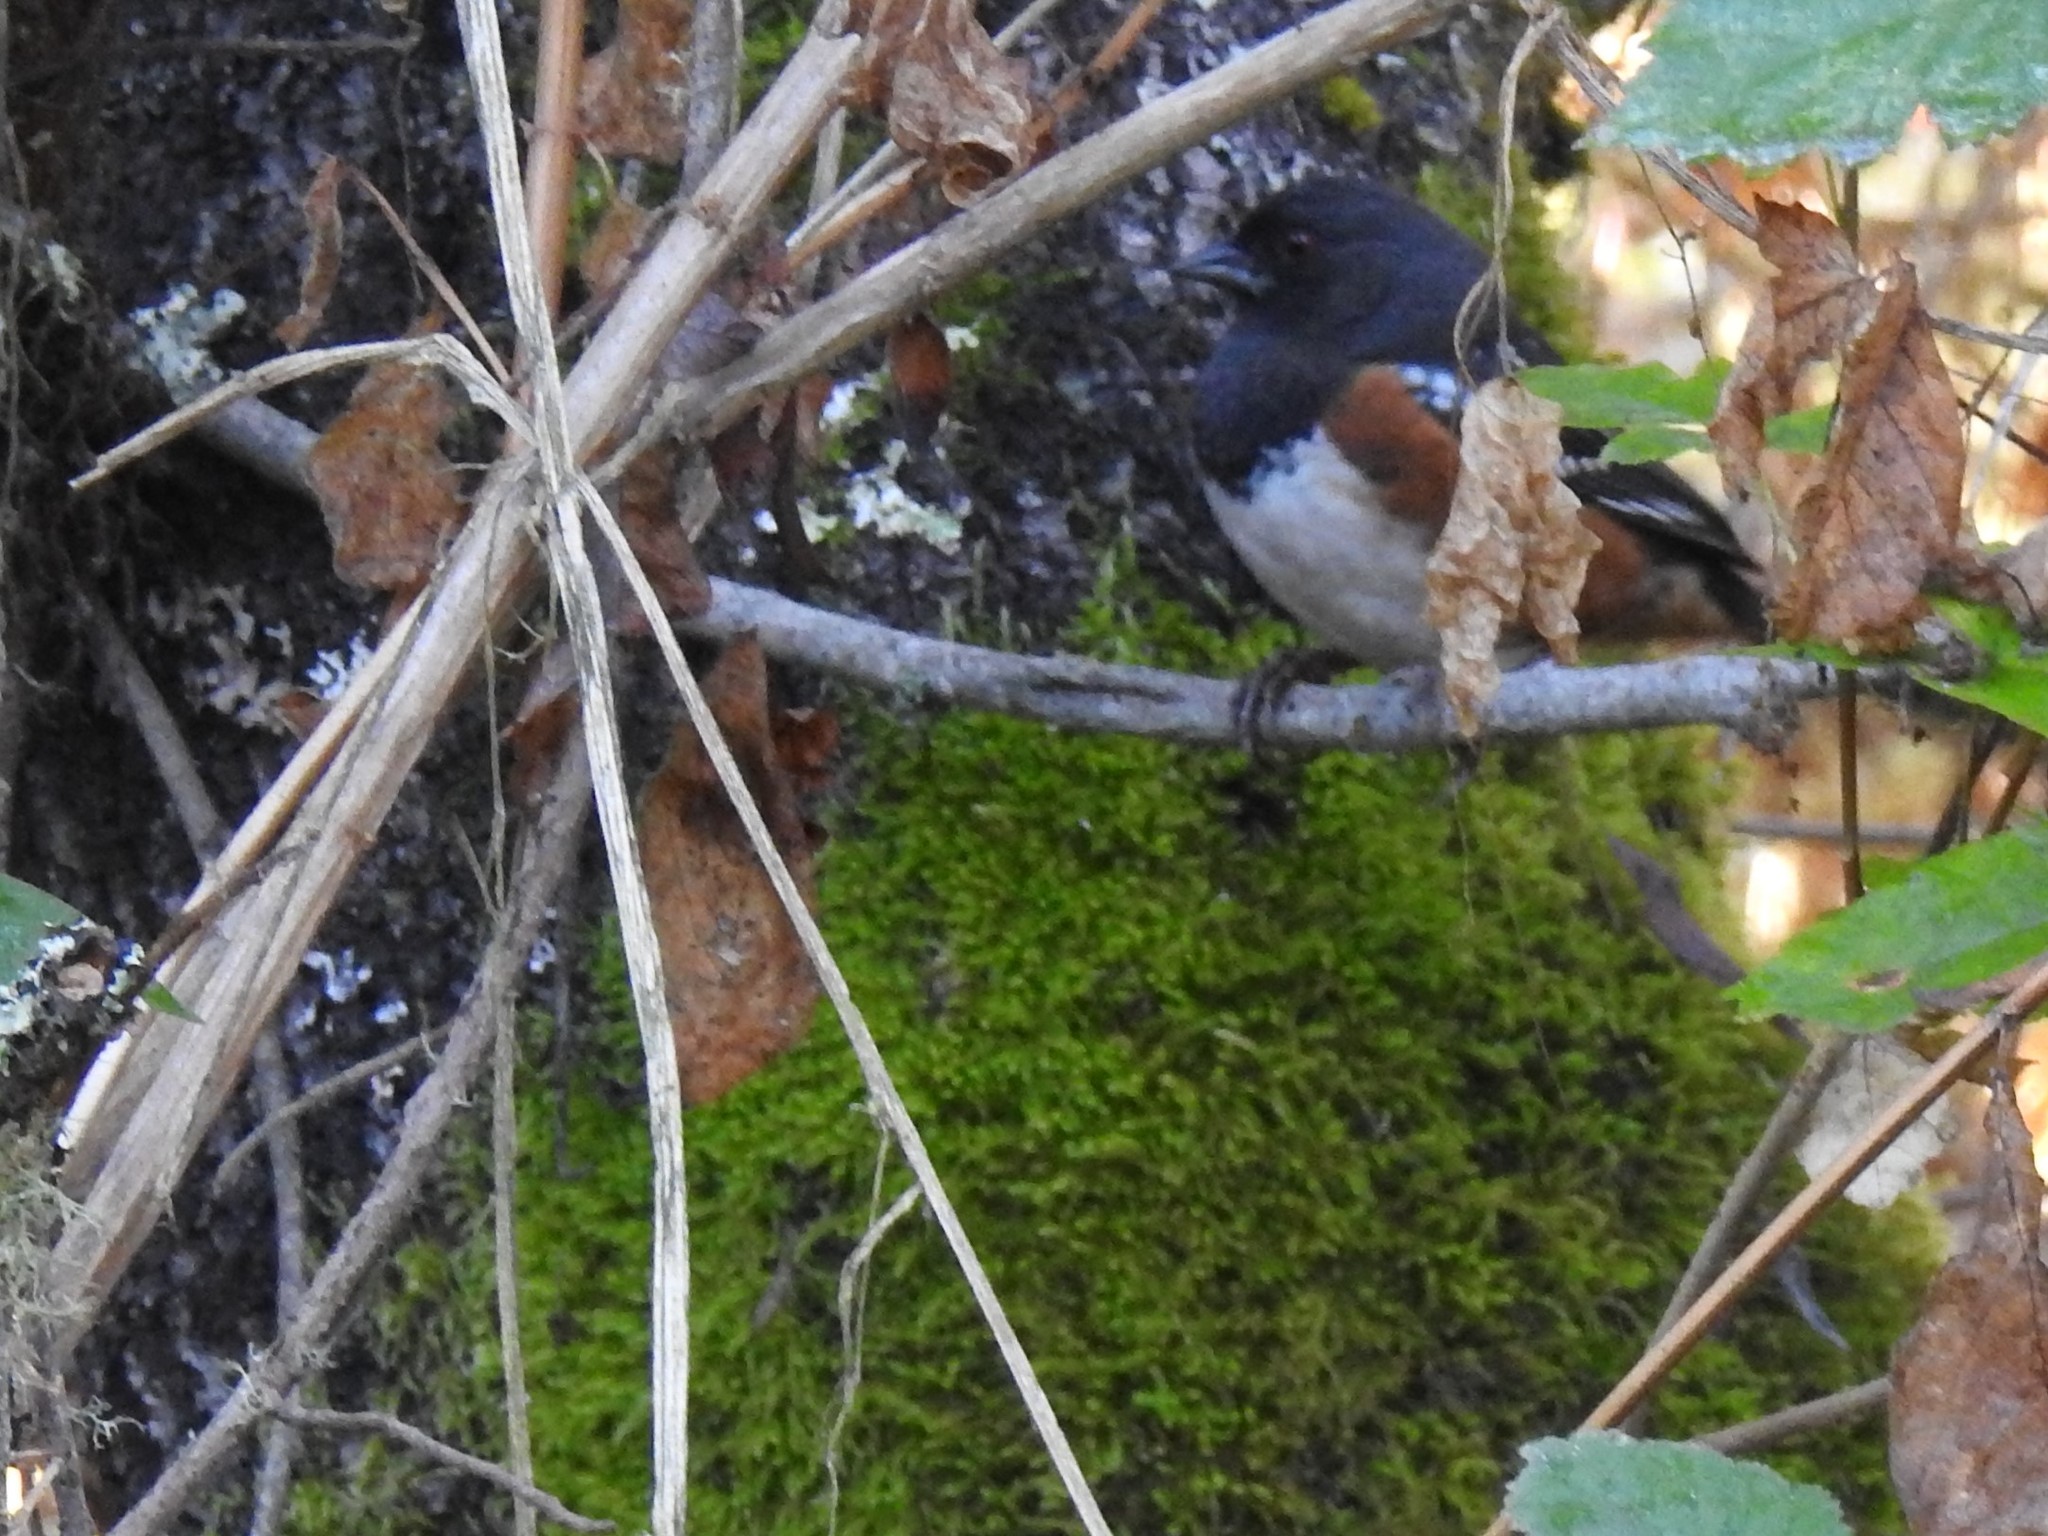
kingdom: Animalia
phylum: Chordata
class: Aves
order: Passeriformes
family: Passerellidae
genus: Pipilo
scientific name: Pipilo maculatus
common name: Spotted towhee
